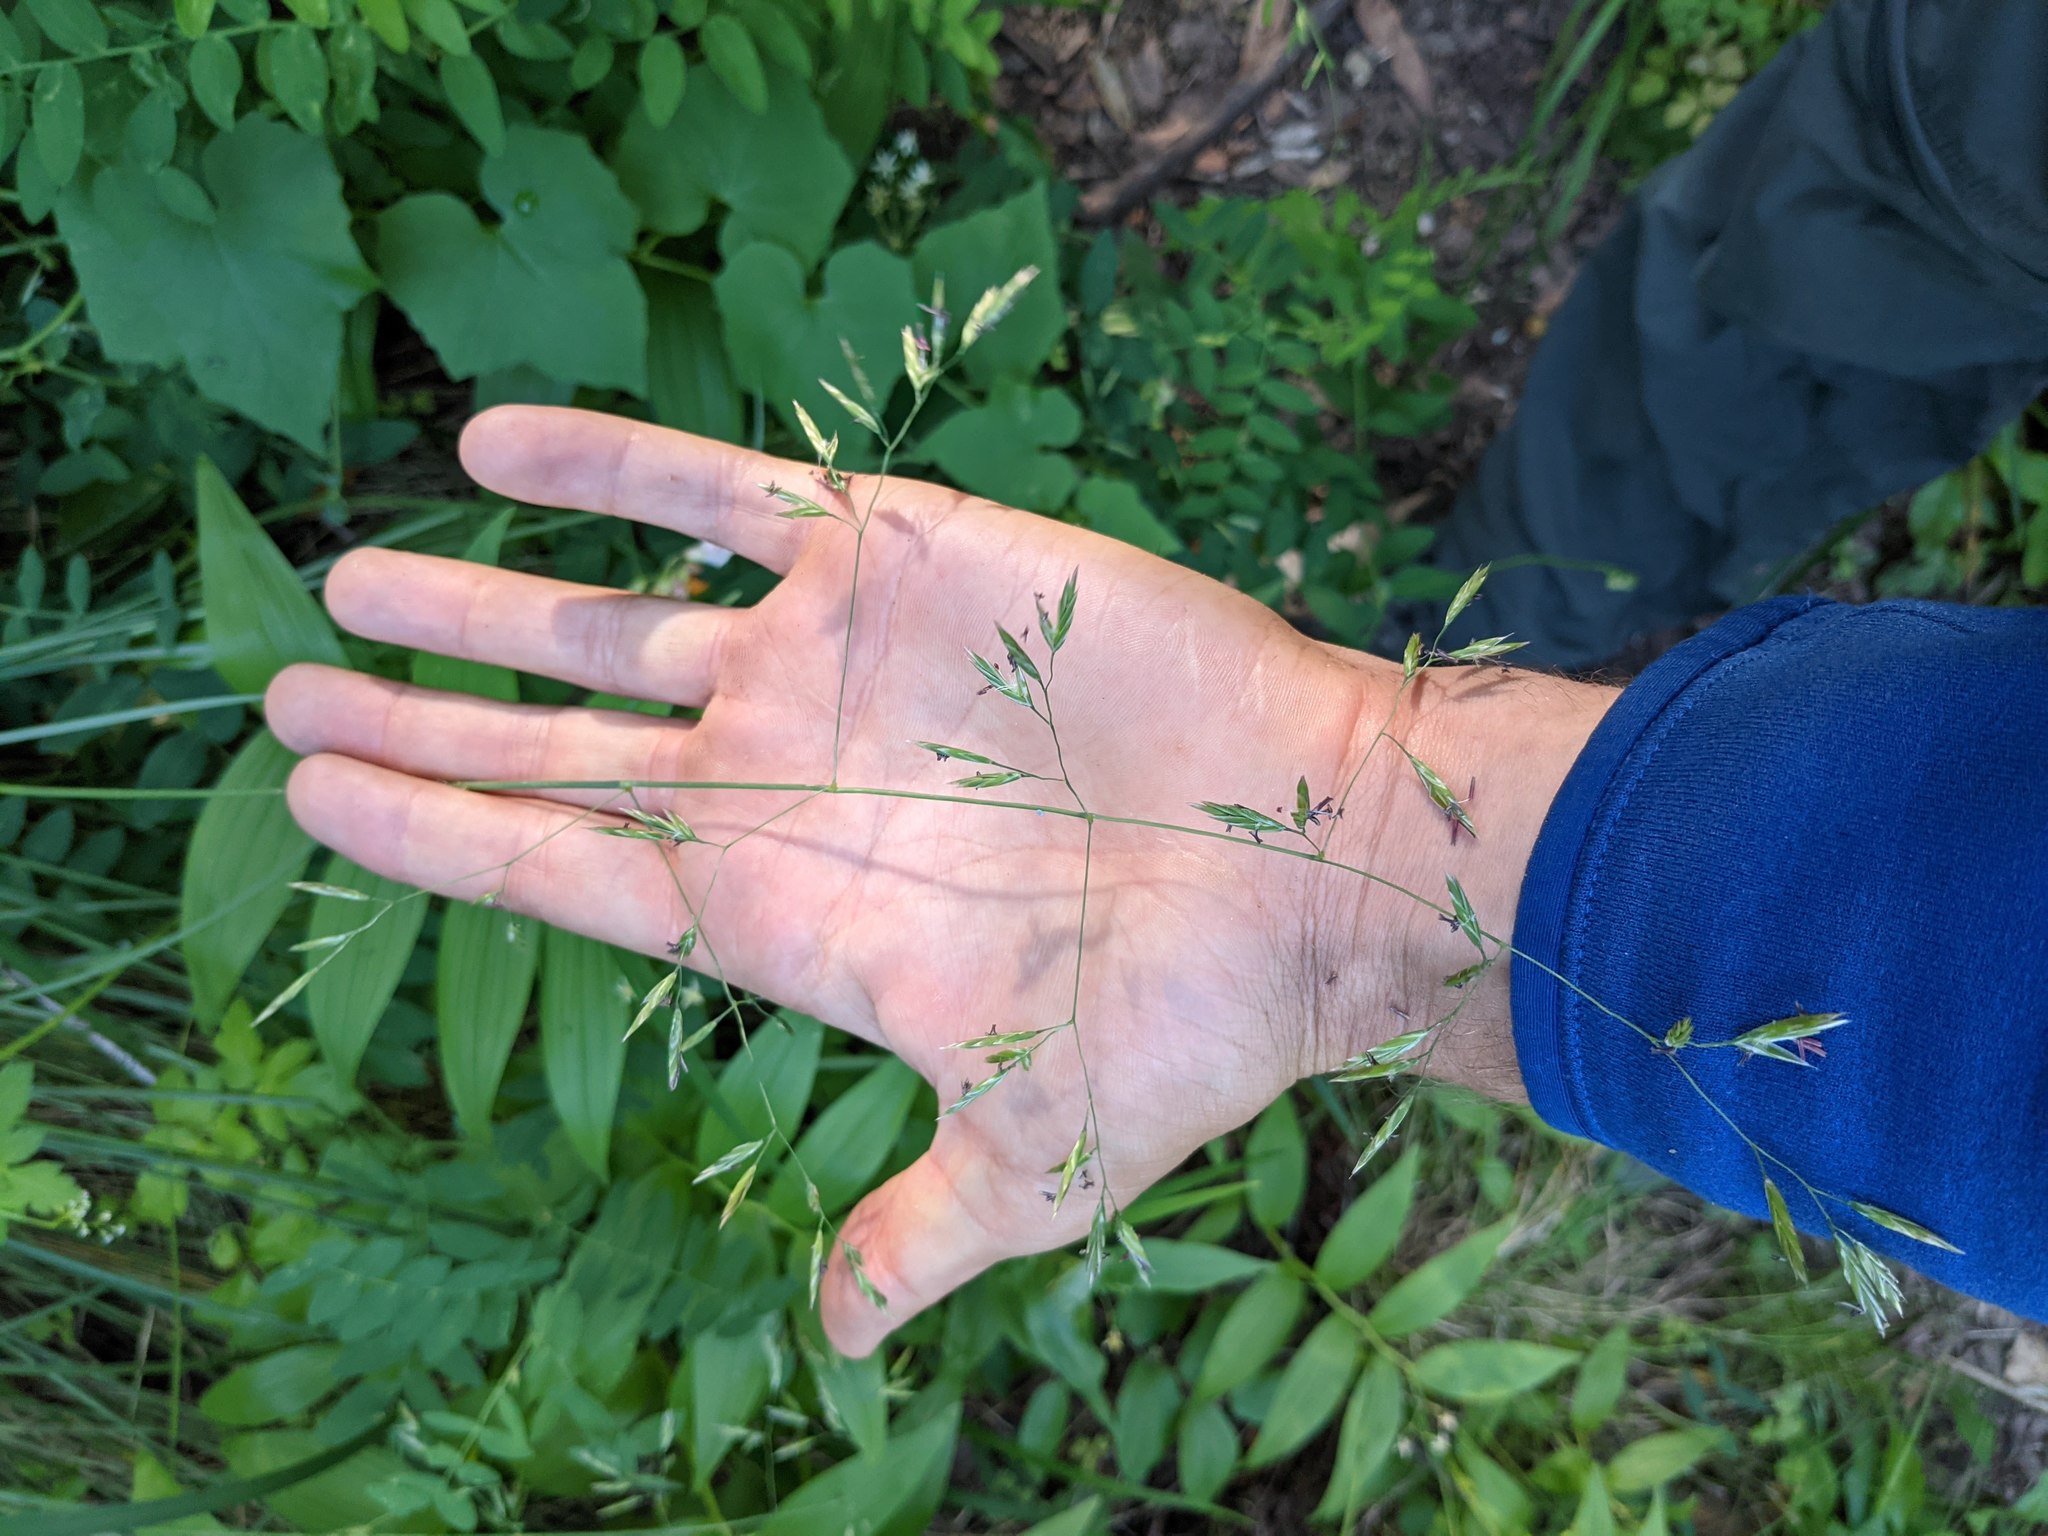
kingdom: Plantae
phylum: Tracheophyta
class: Liliopsida
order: Poales
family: Poaceae
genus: Festuca
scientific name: Festuca californica
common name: California fescue
